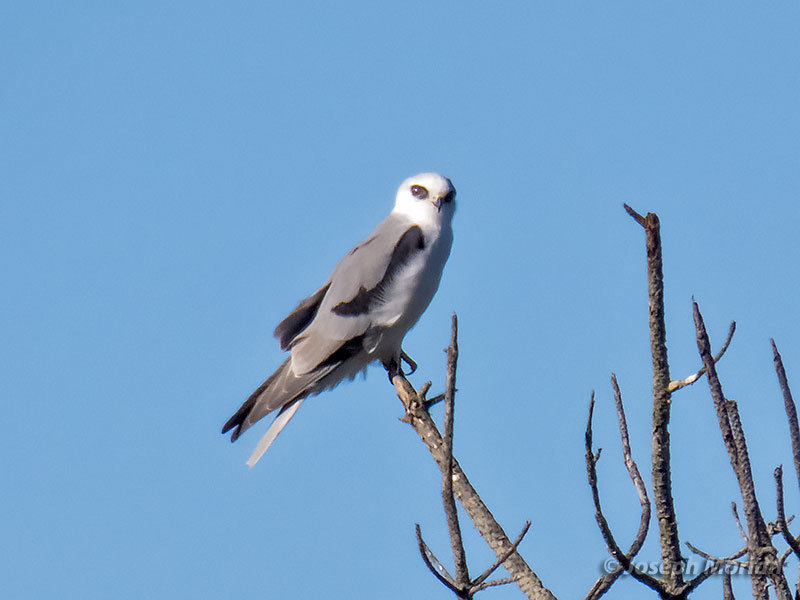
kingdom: Animalia
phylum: Chordata
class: Aves
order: Accipitriformes
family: Accipitridae
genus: Elanus
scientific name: Elanus leucurus
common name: White-tailed kite
